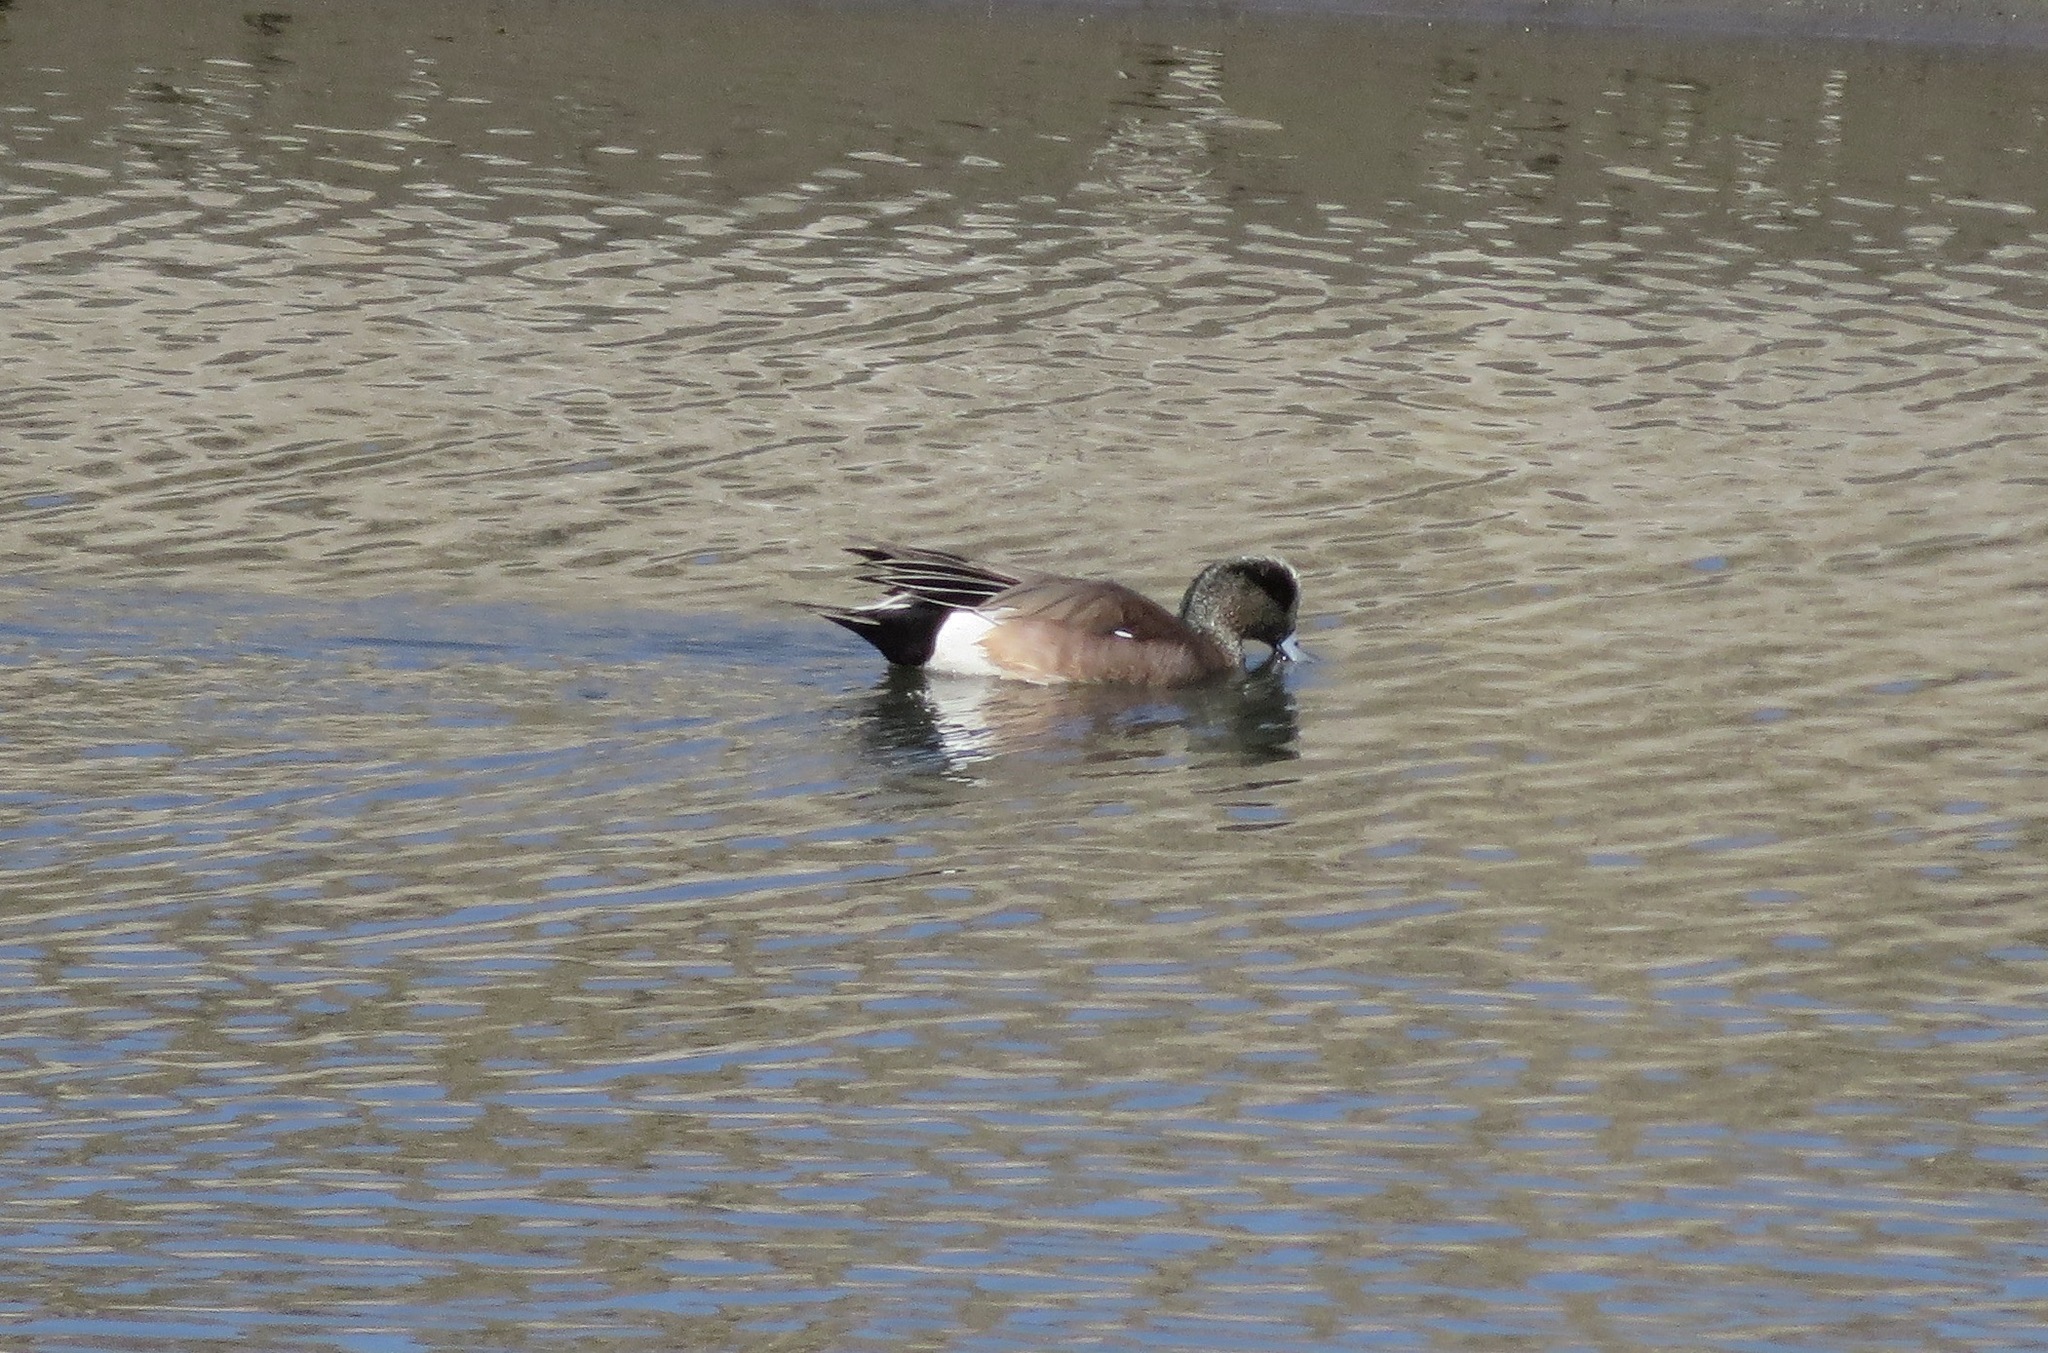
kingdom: Animalia
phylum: Chordata
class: Aves
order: Anseriformes
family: Anatidae
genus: Mareca
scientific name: Mareca americana
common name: American wigeon
